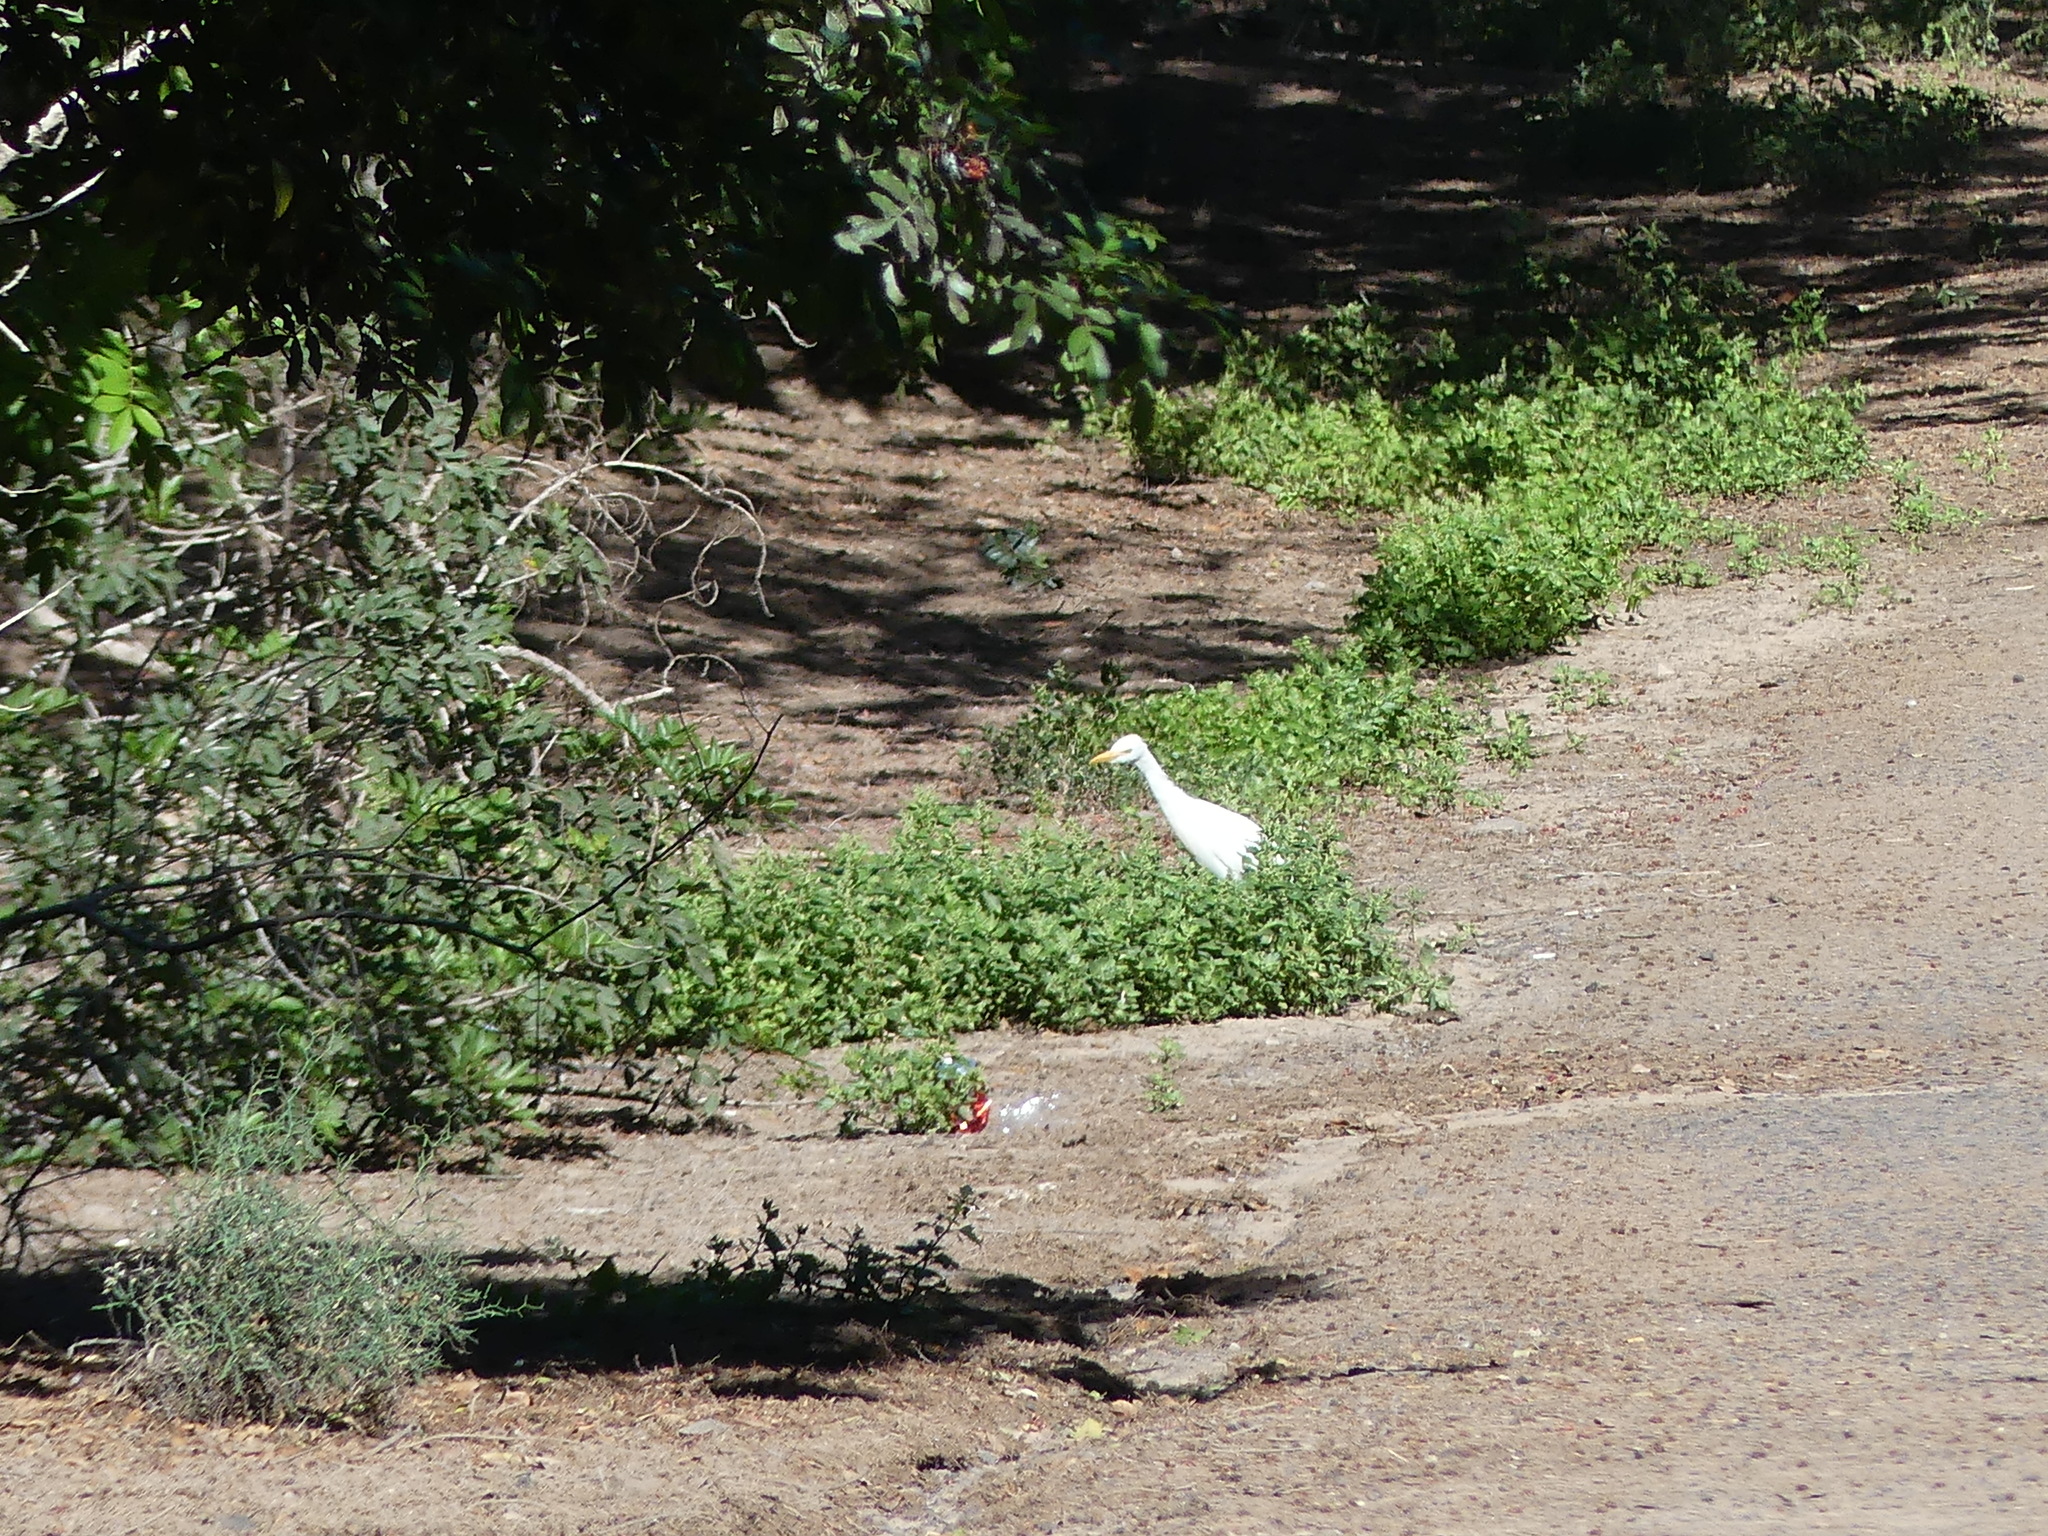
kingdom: Animalia
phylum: Chordata
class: Aves
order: Pelecaniformes
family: Ardeidae
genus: Bubulcus
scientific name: Bubulcus ibis
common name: Cattle egret
